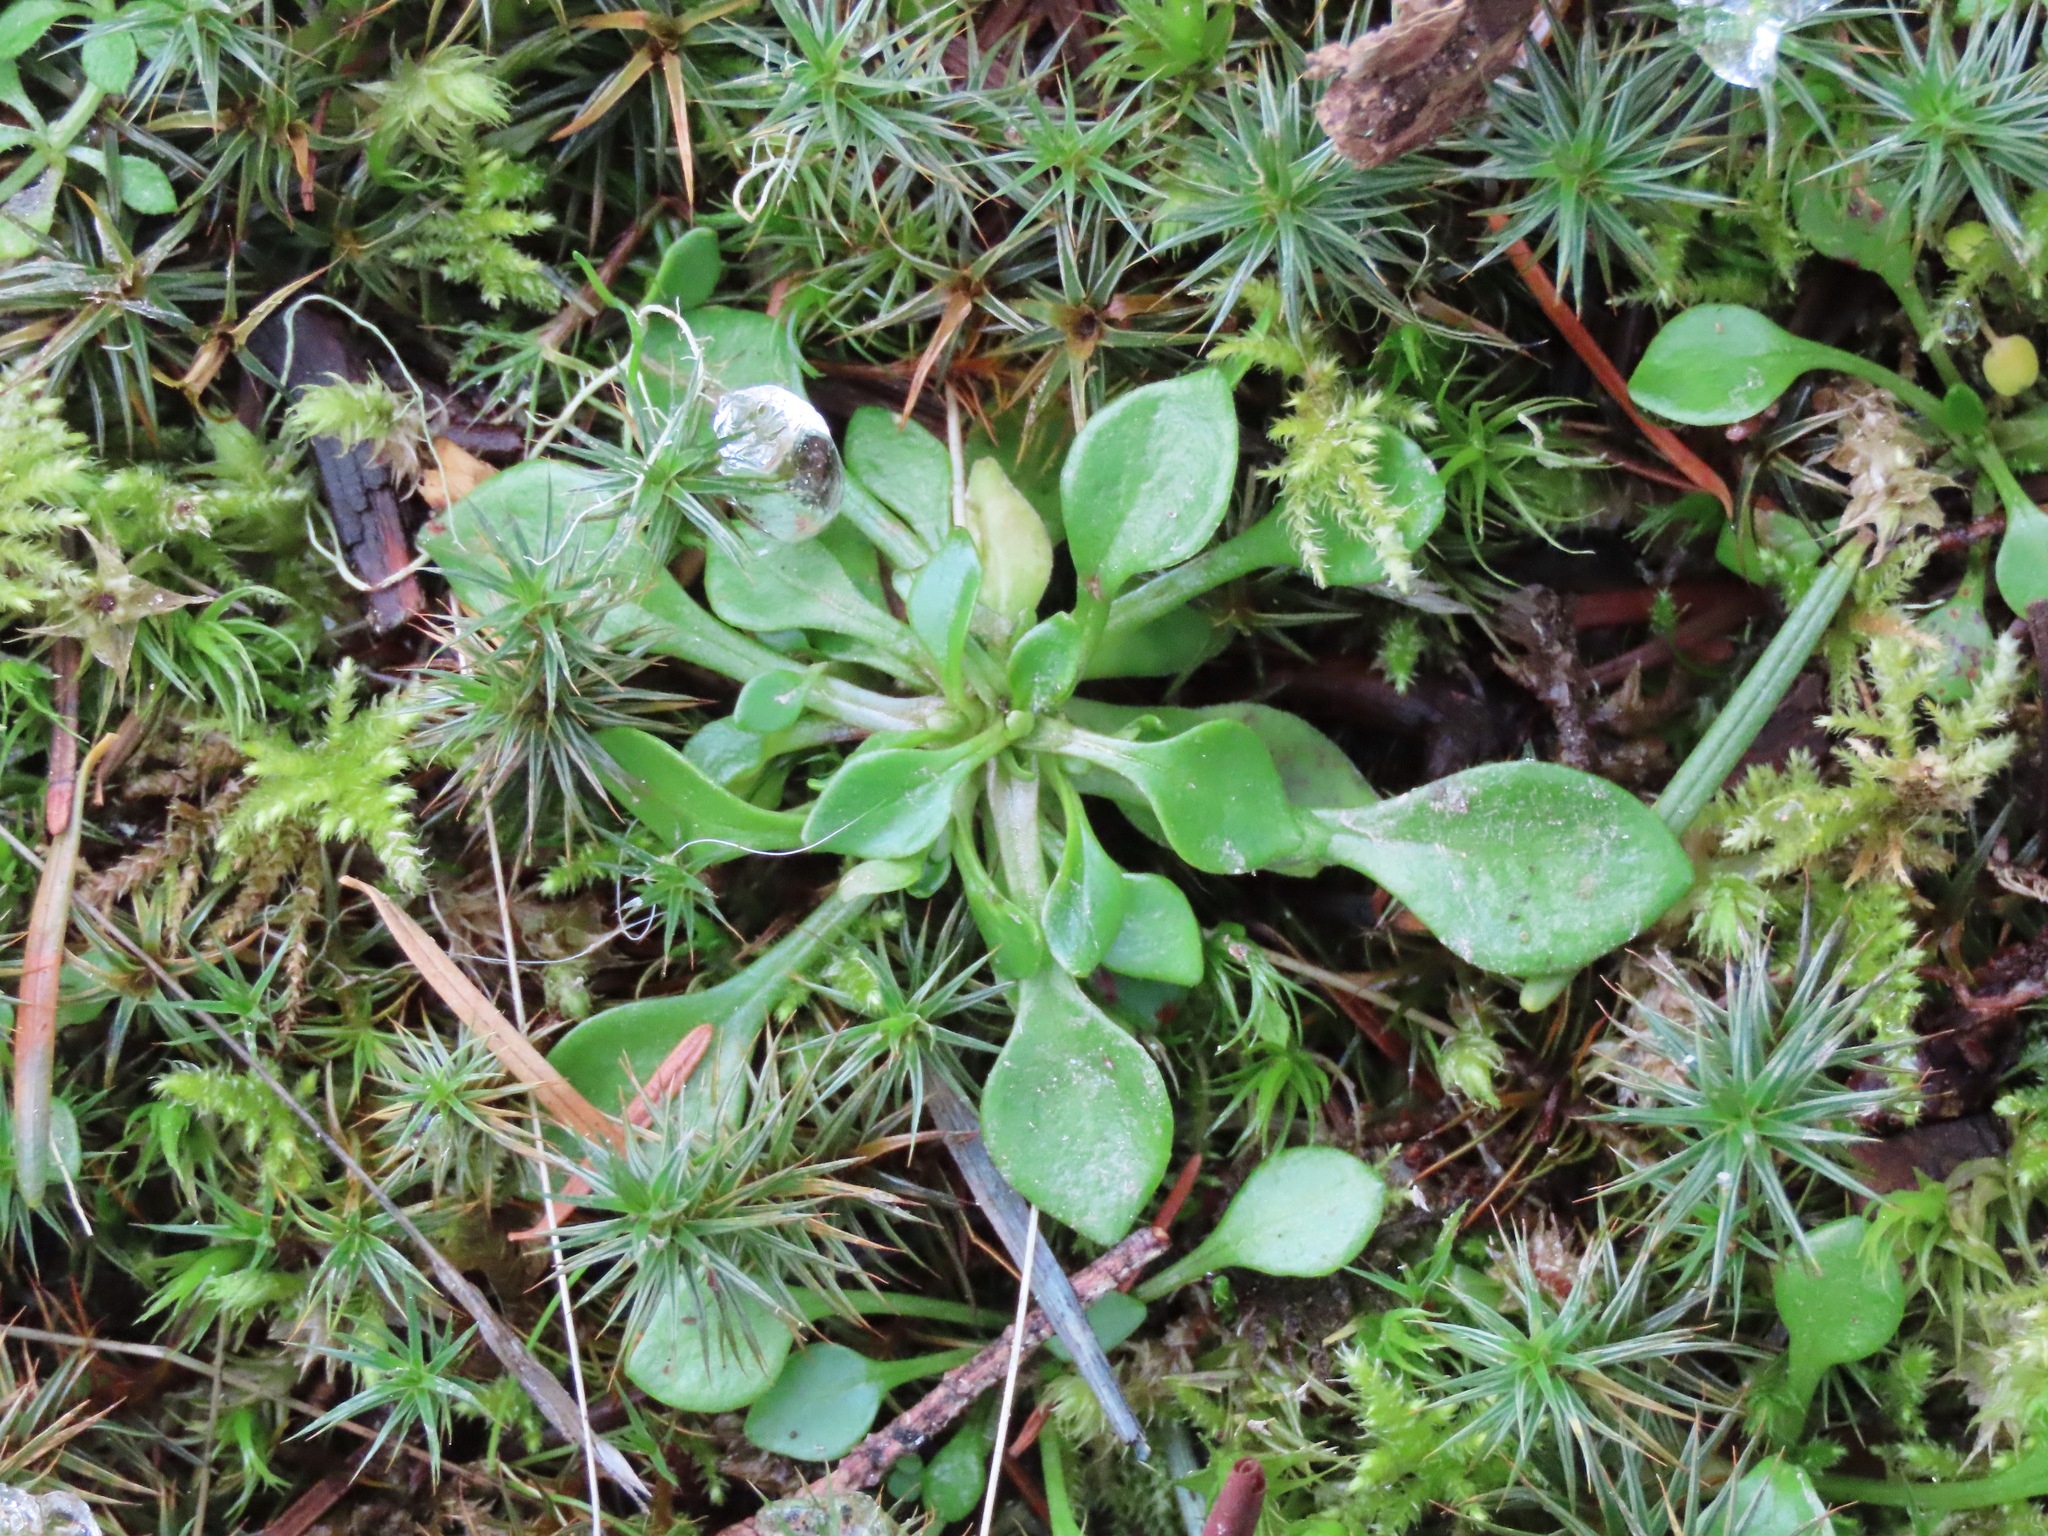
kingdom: Plantae
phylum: Tracheophyta
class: Magnoliopsida
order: Caryophyllales
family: Montiaceae
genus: Montia
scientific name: Montia parvifolia
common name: Small-leaved blinks
